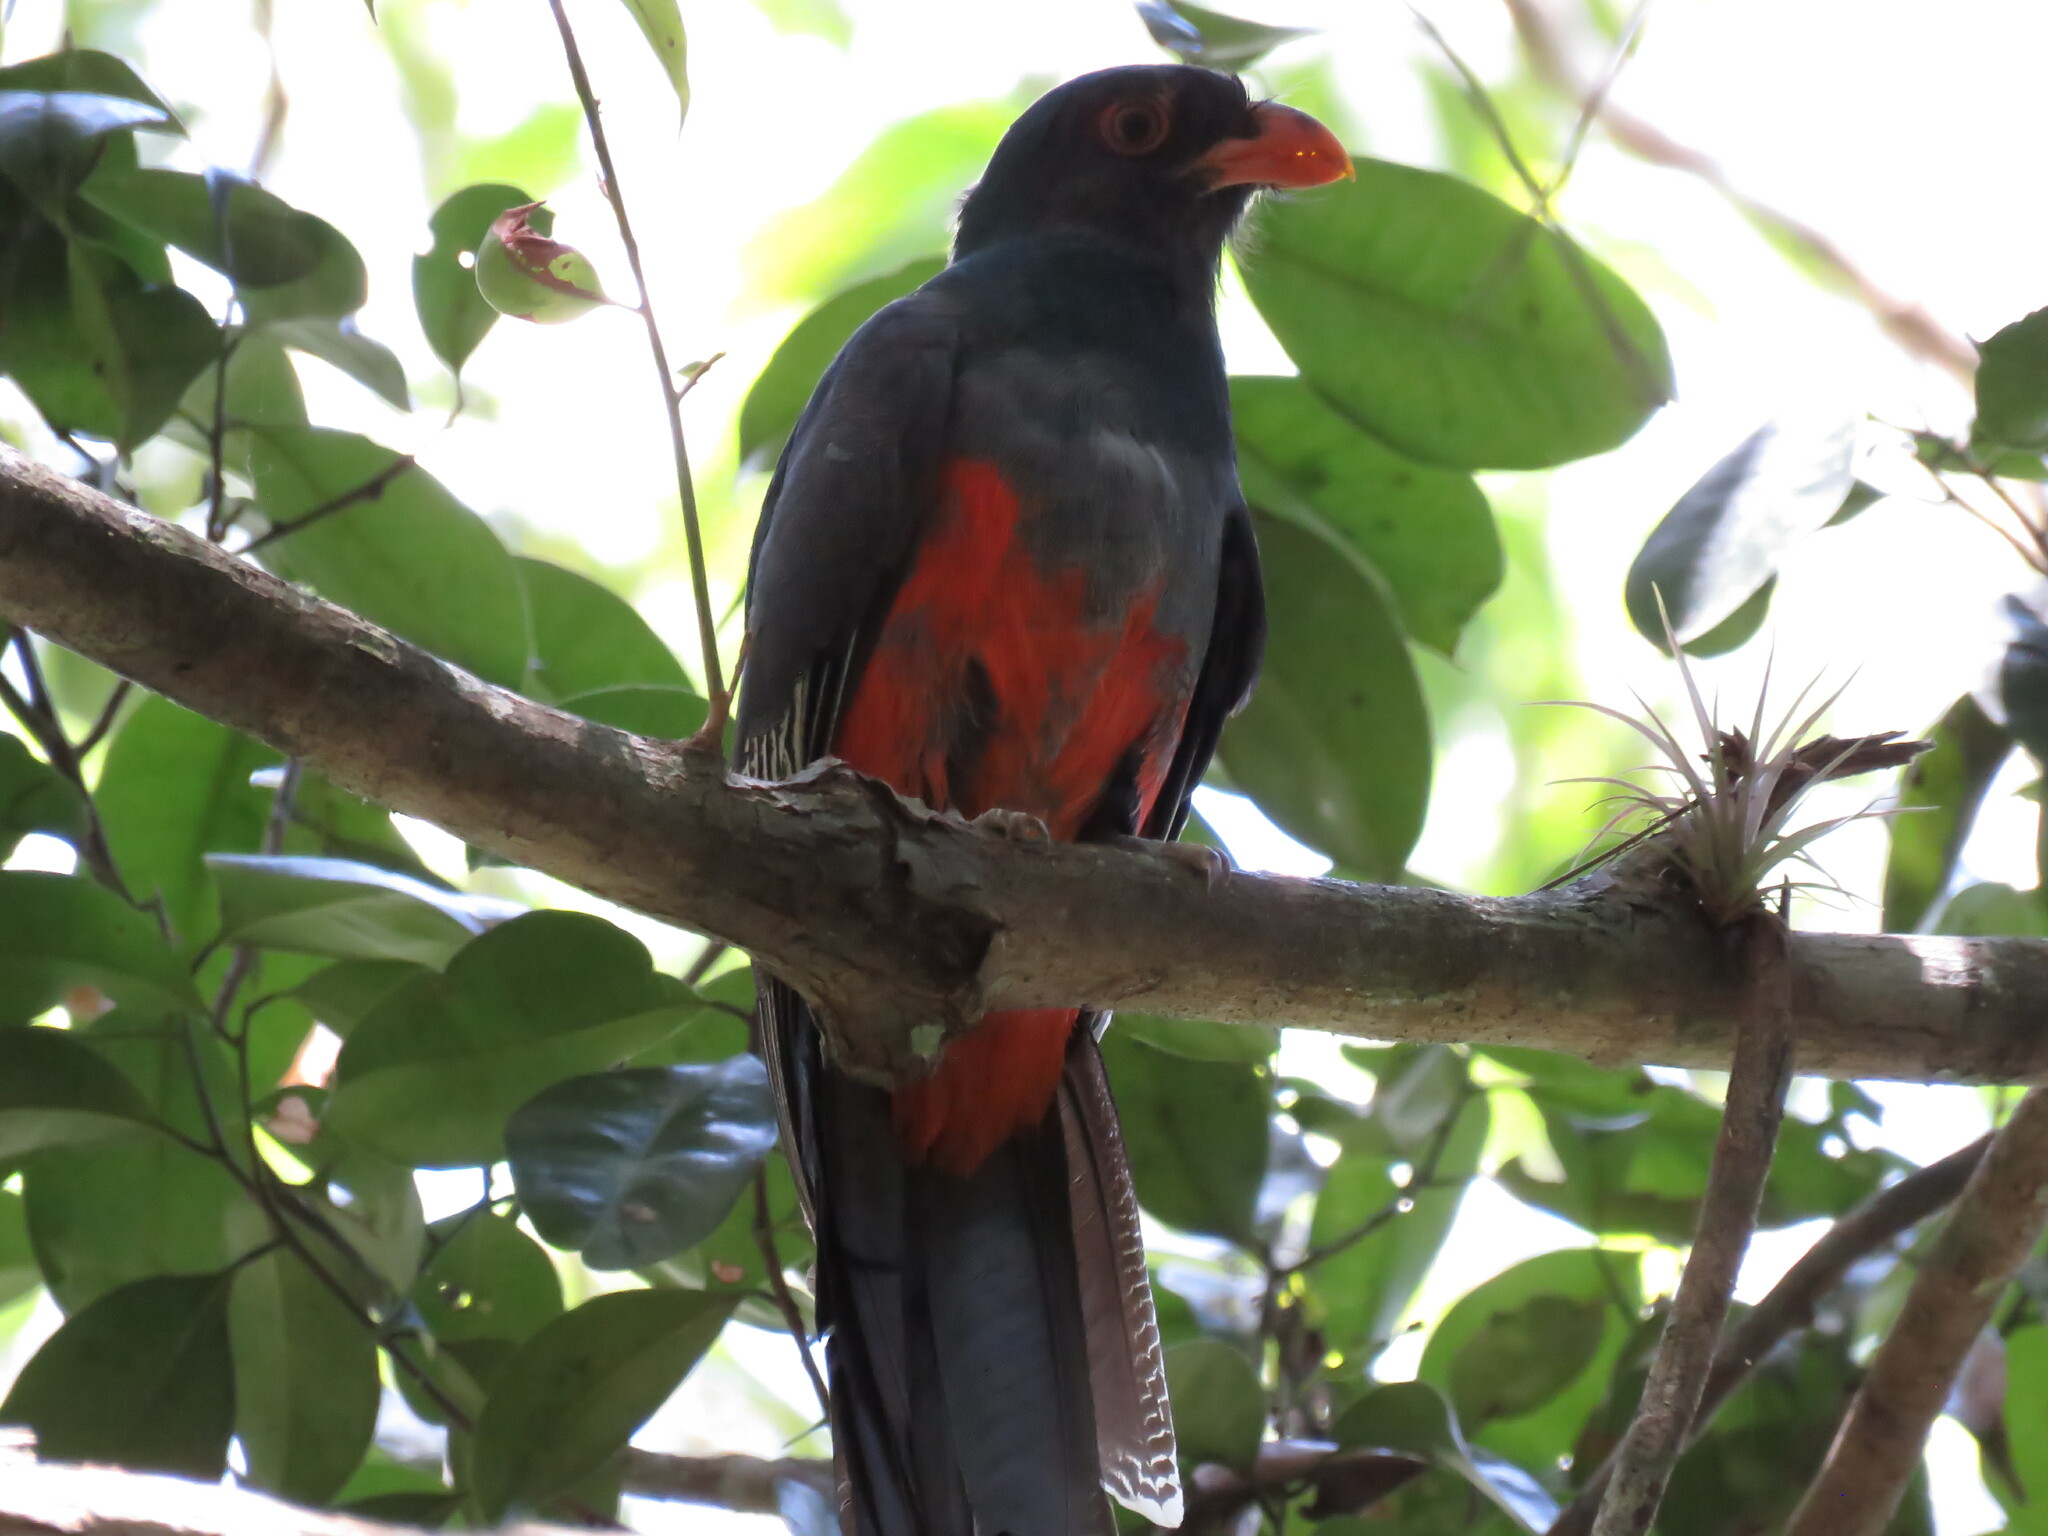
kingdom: Animalia
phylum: Chordata
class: Aves
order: Trogoniformes
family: Trogonidae
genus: Trogon
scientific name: Trogon massena
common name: Slaty-tailed trogon
